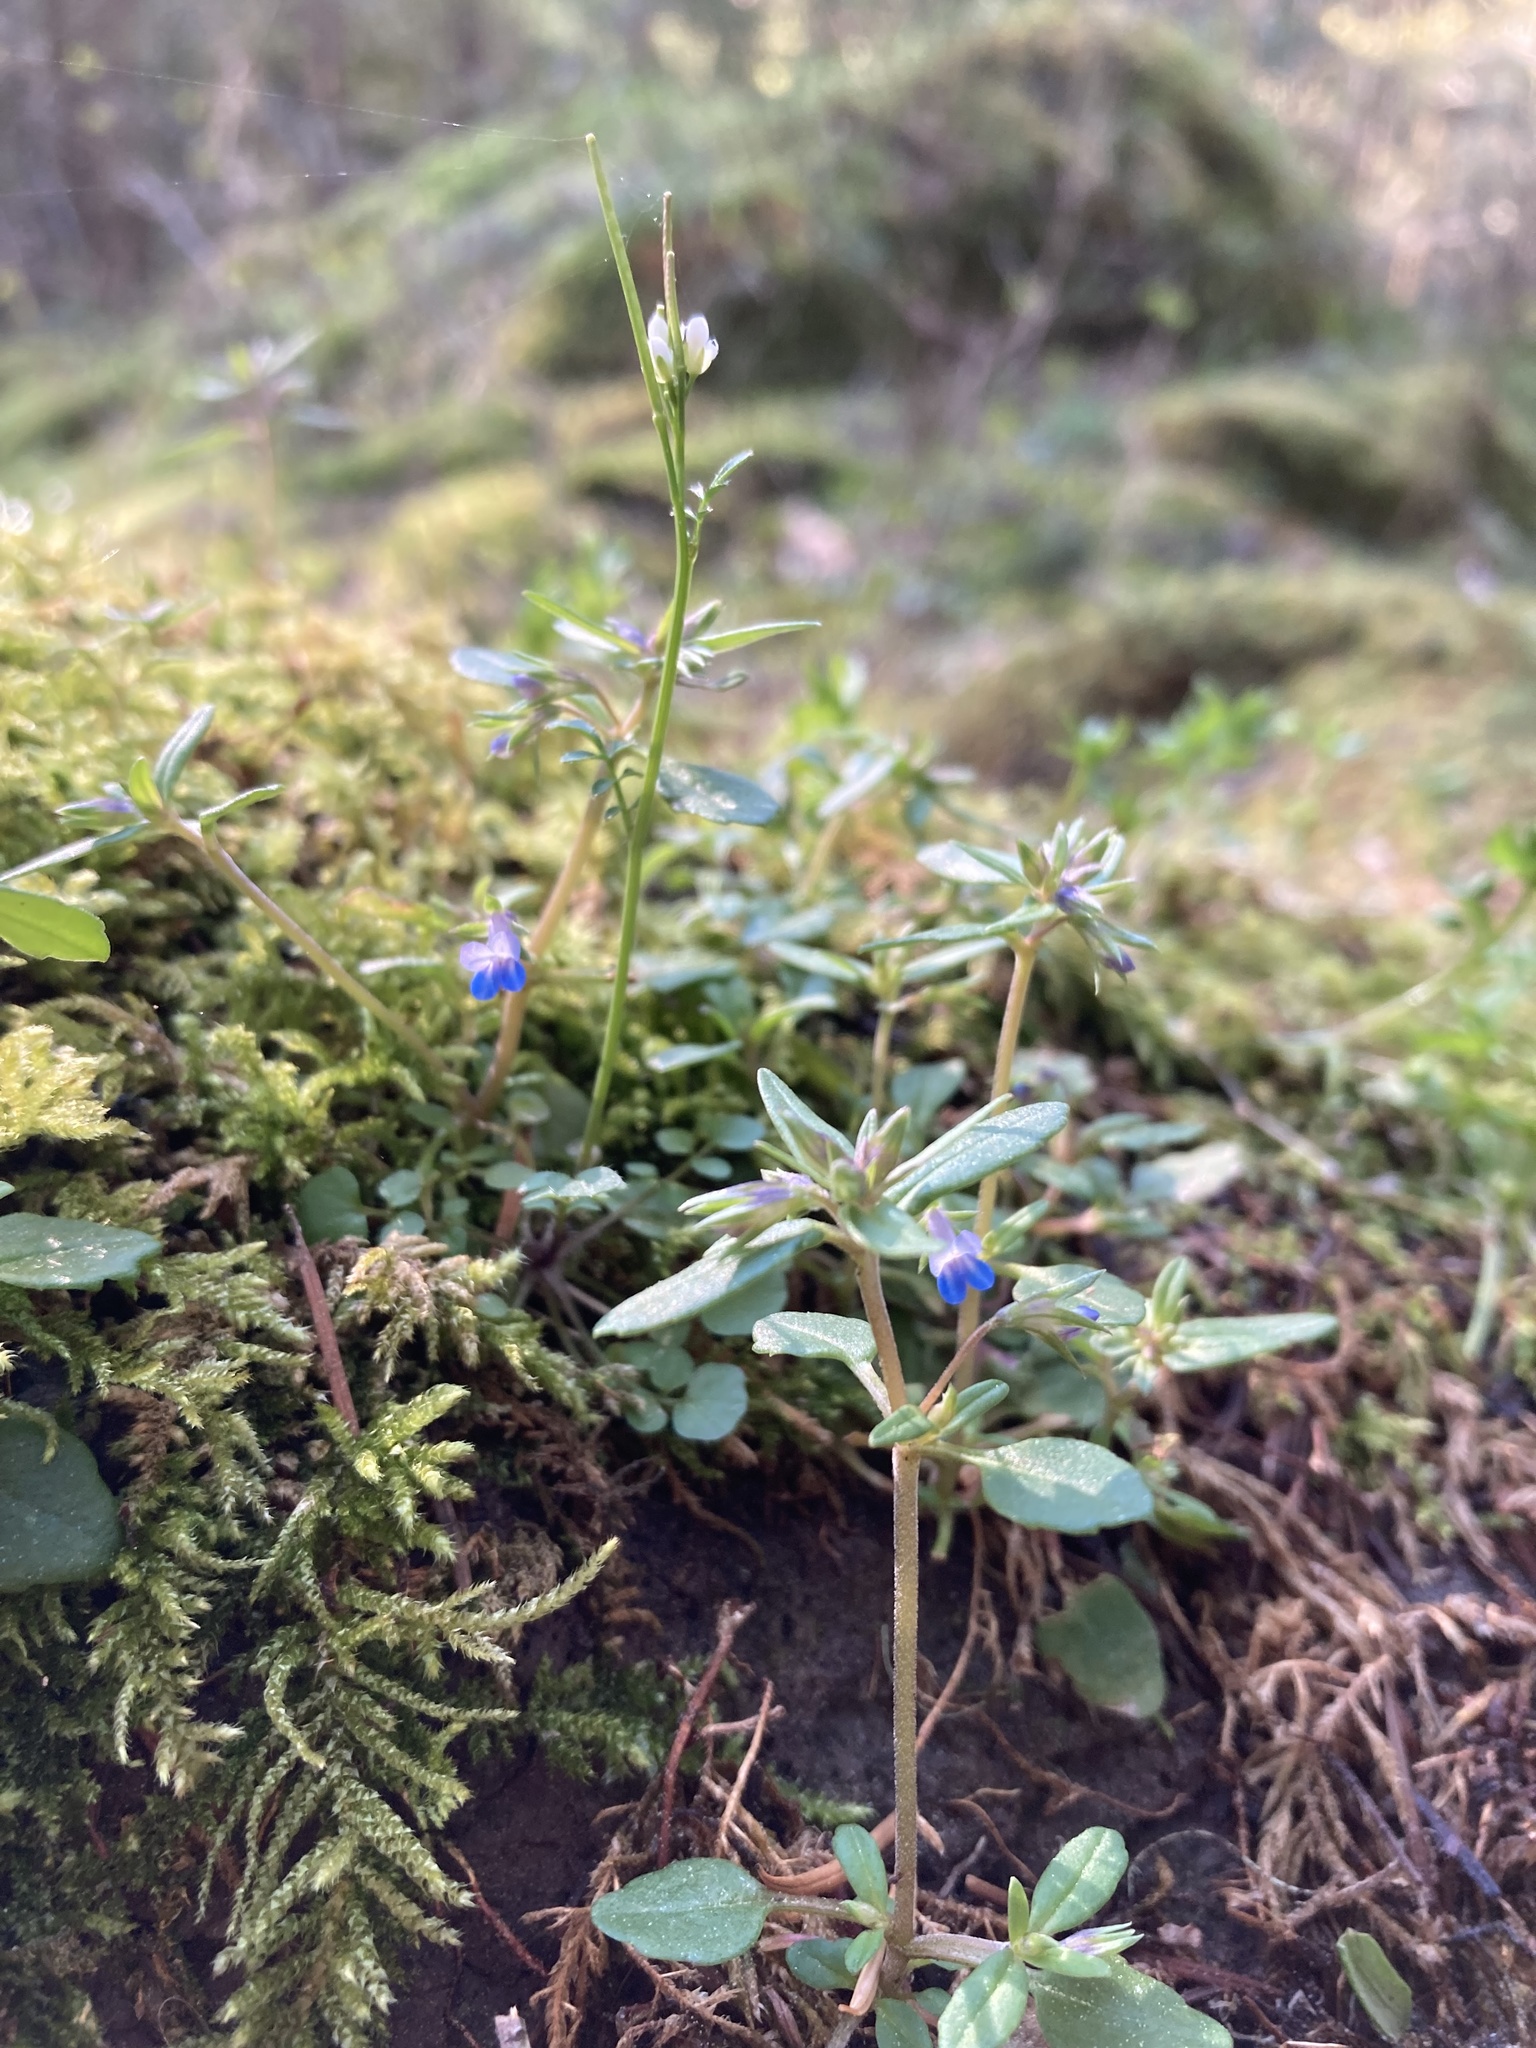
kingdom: Plantae
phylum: Tracheophyta
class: Magnoliopsida
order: Lamiales
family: Plantaginaceae
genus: Collinsia
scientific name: Collinsia parviflora
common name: Blue-lips
